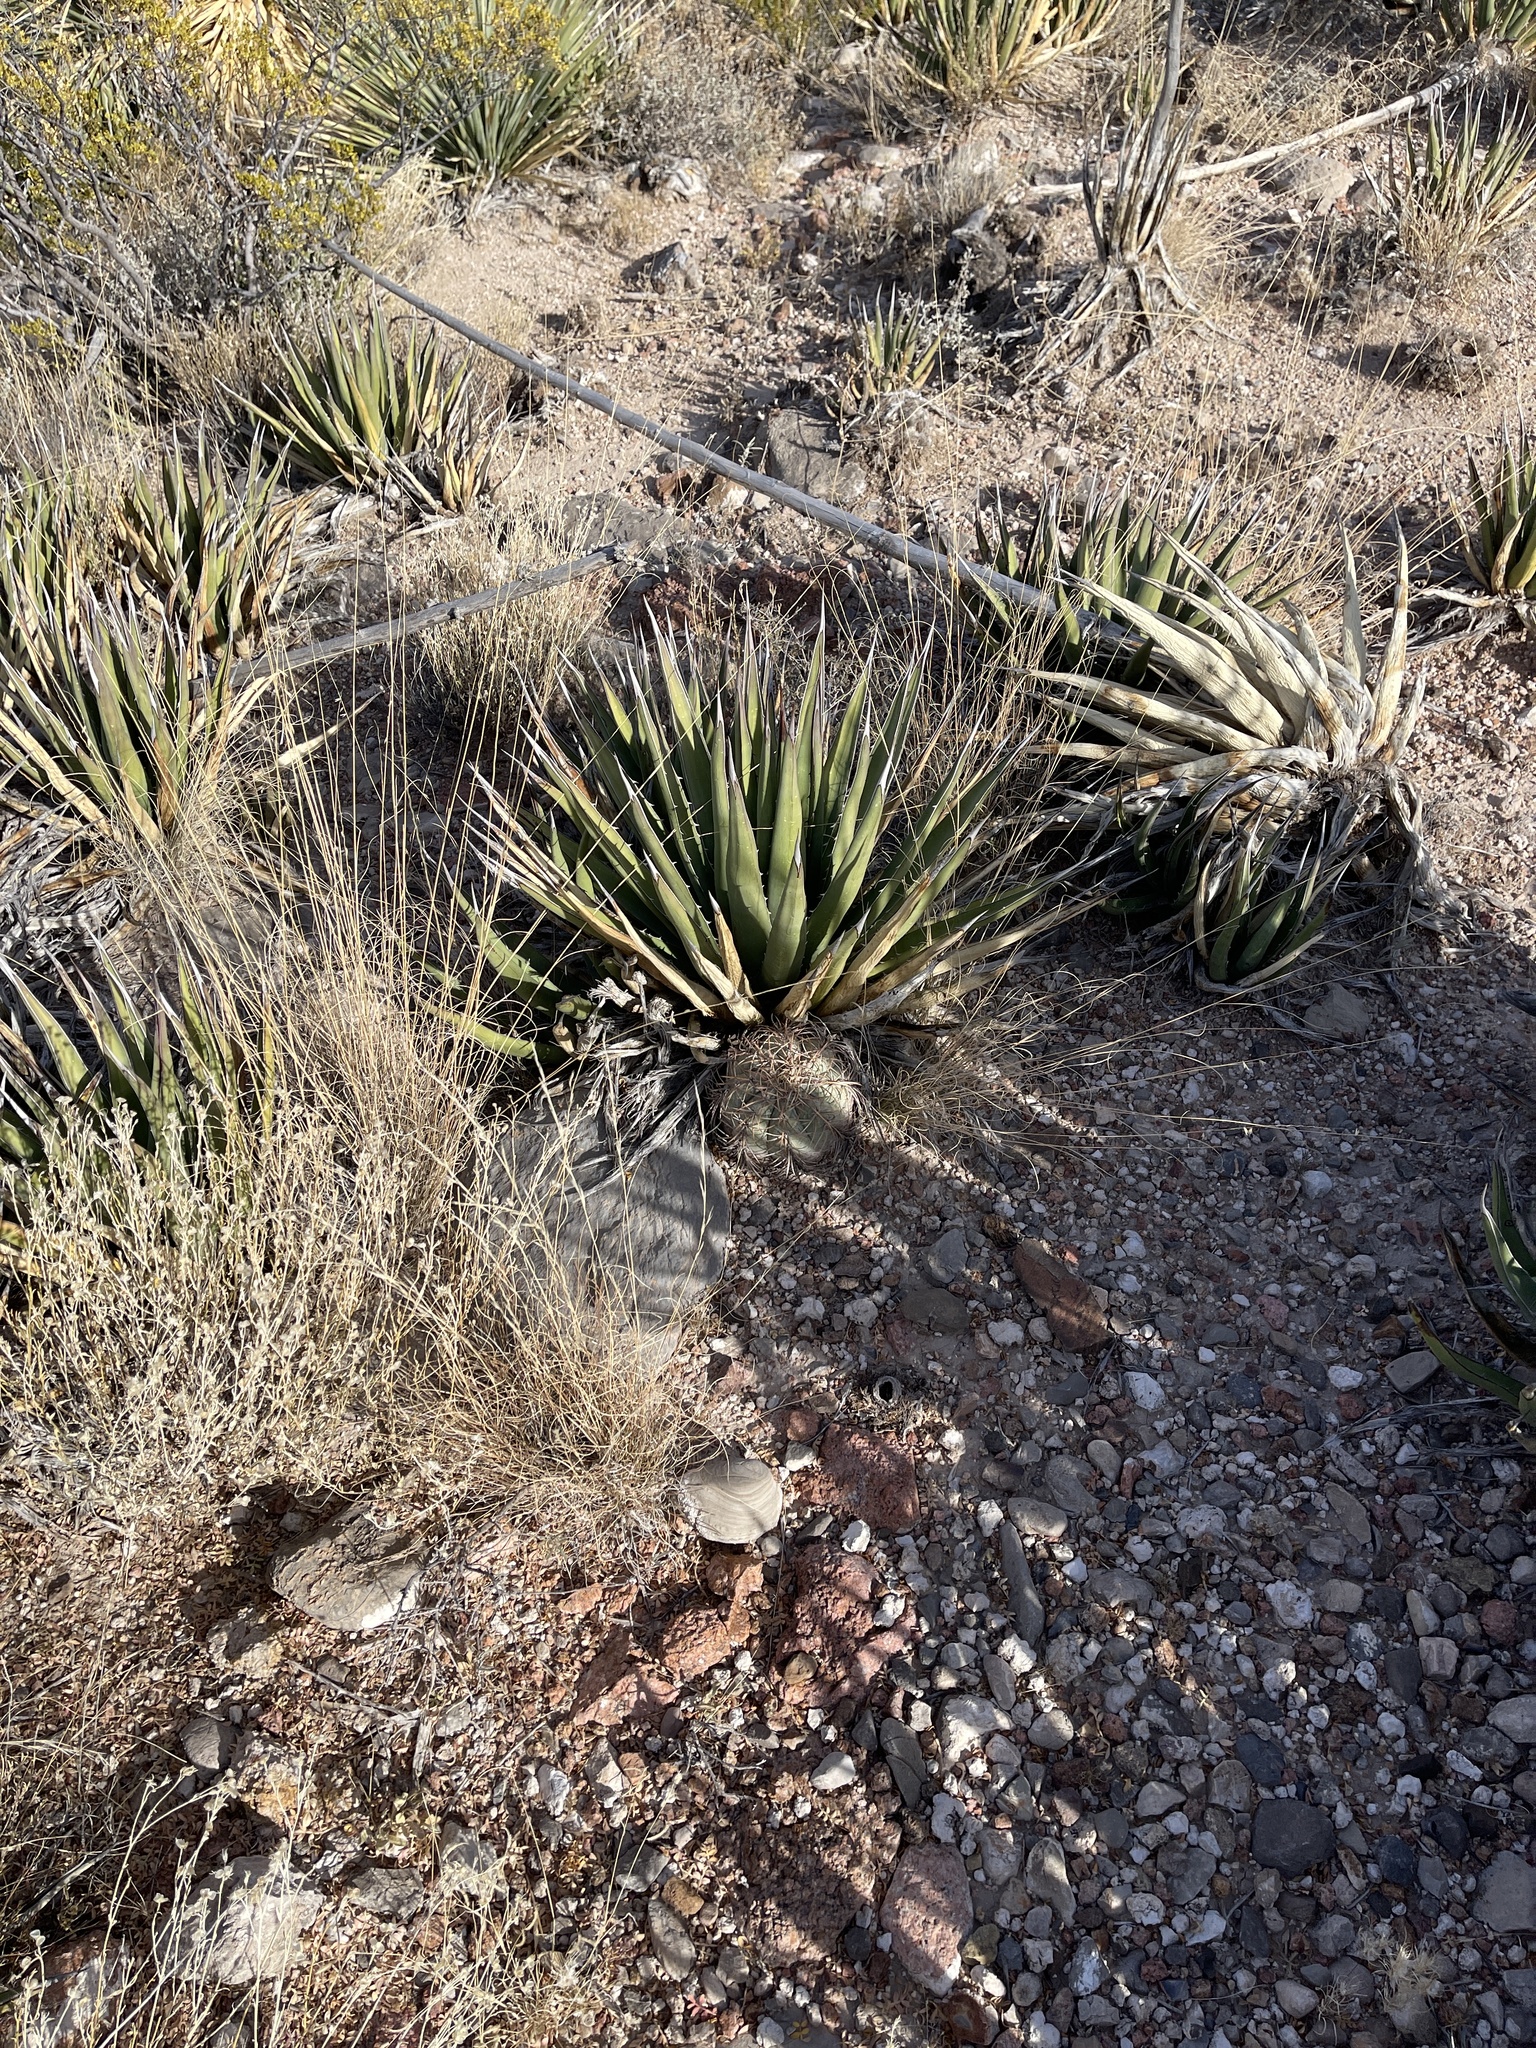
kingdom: Plantae
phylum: Tracheophyta
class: Liliopsida
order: Asparagales
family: Asparagaceae
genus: Agave
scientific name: Agave lechuguilla
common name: Lecheguilla agave
